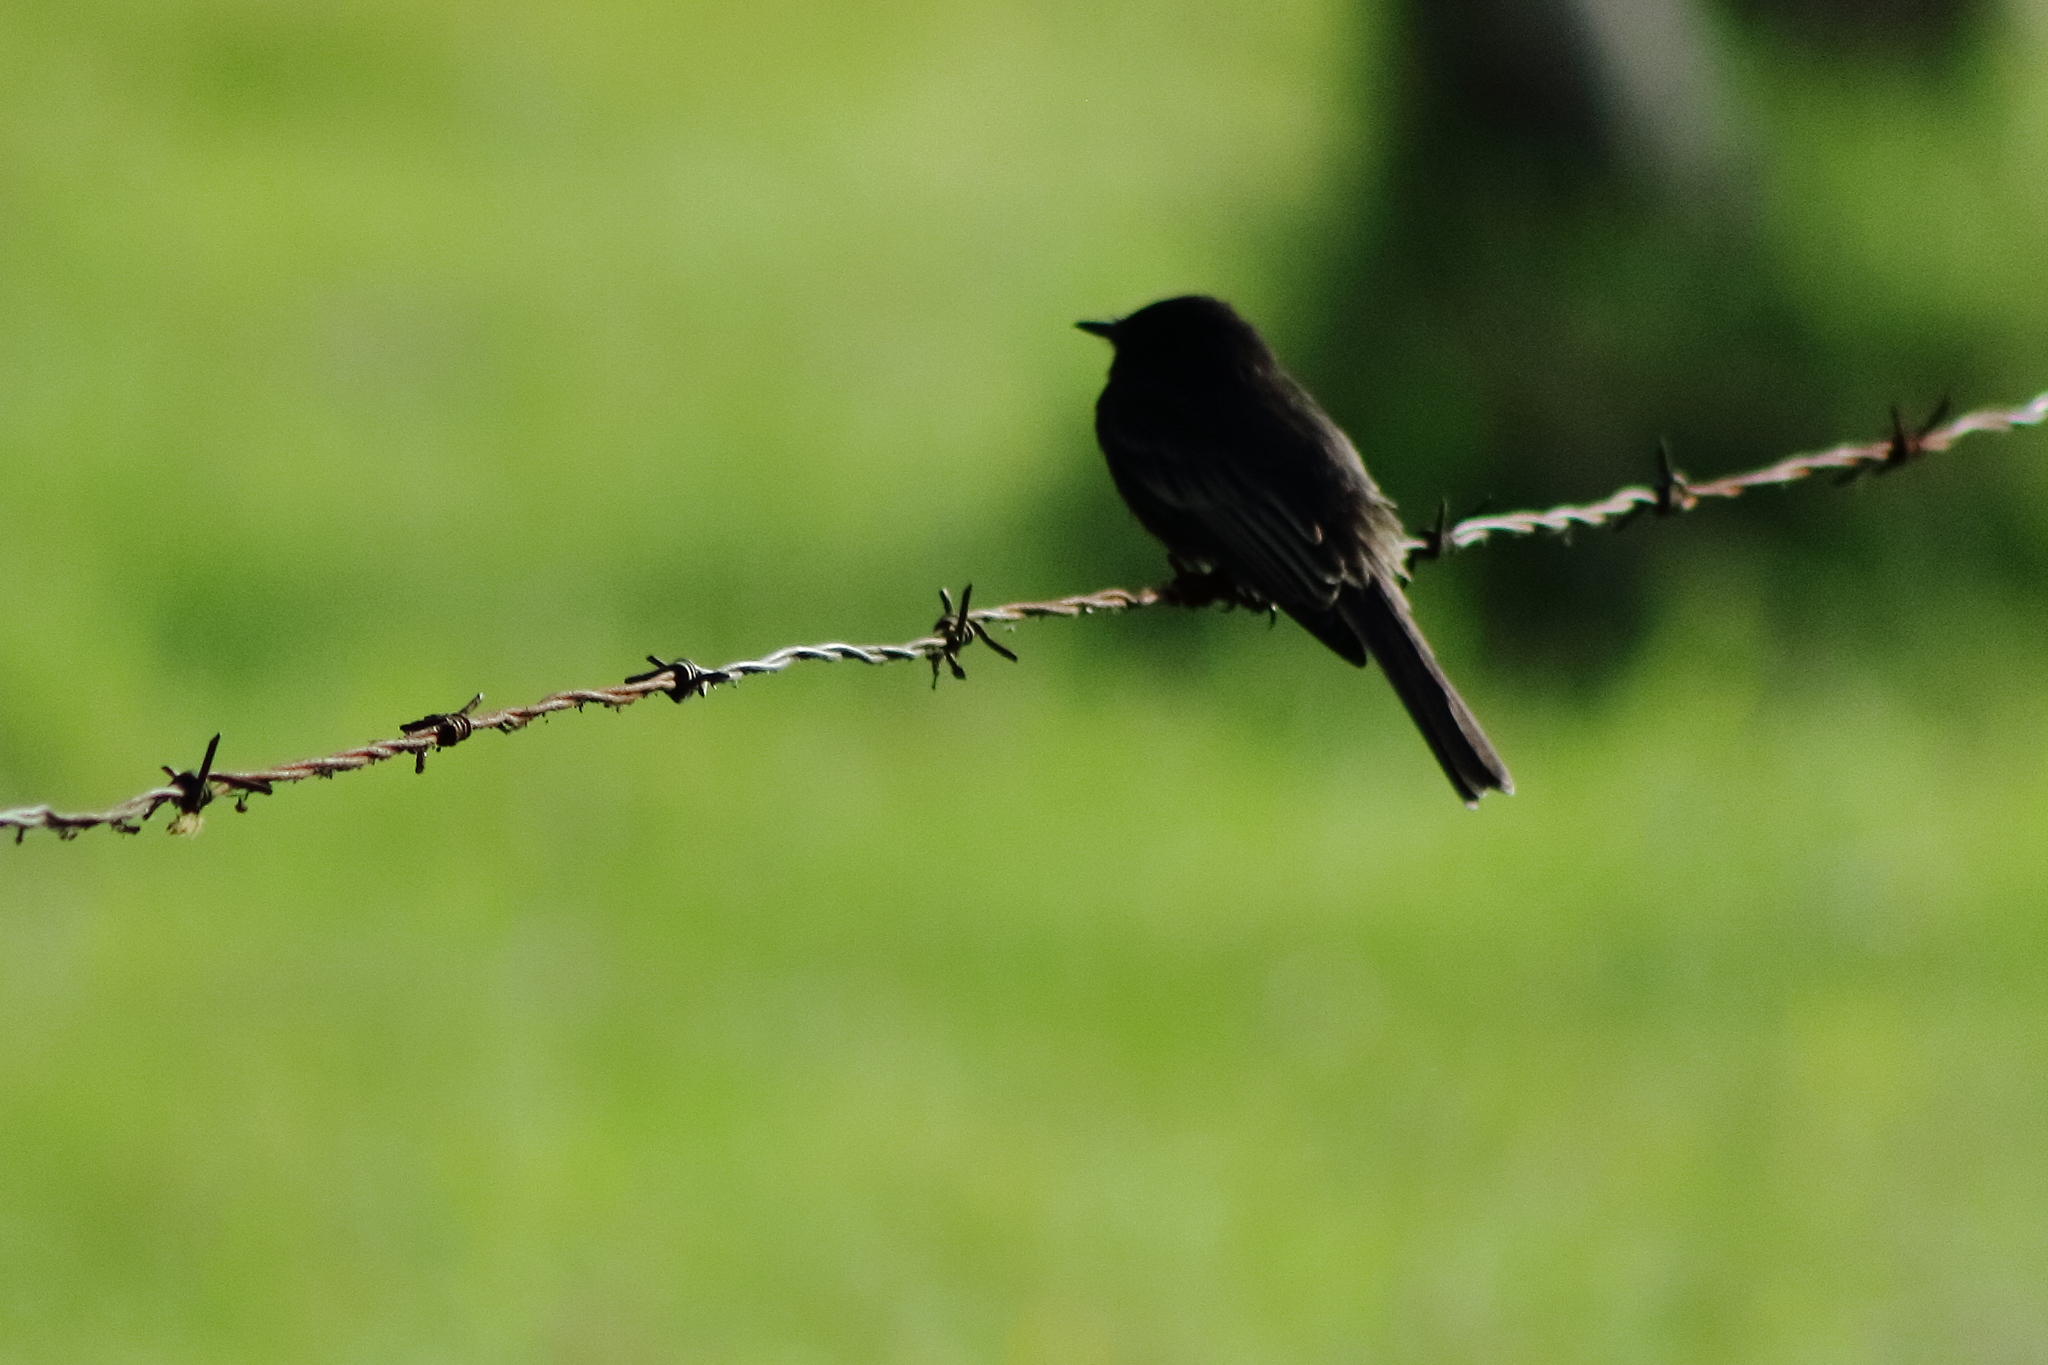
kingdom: Animalia
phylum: Chordata
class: Aves
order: Passeriformes
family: Tyrannidae
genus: Sayornis
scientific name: Sayornis nigricans
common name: Black phoebe
